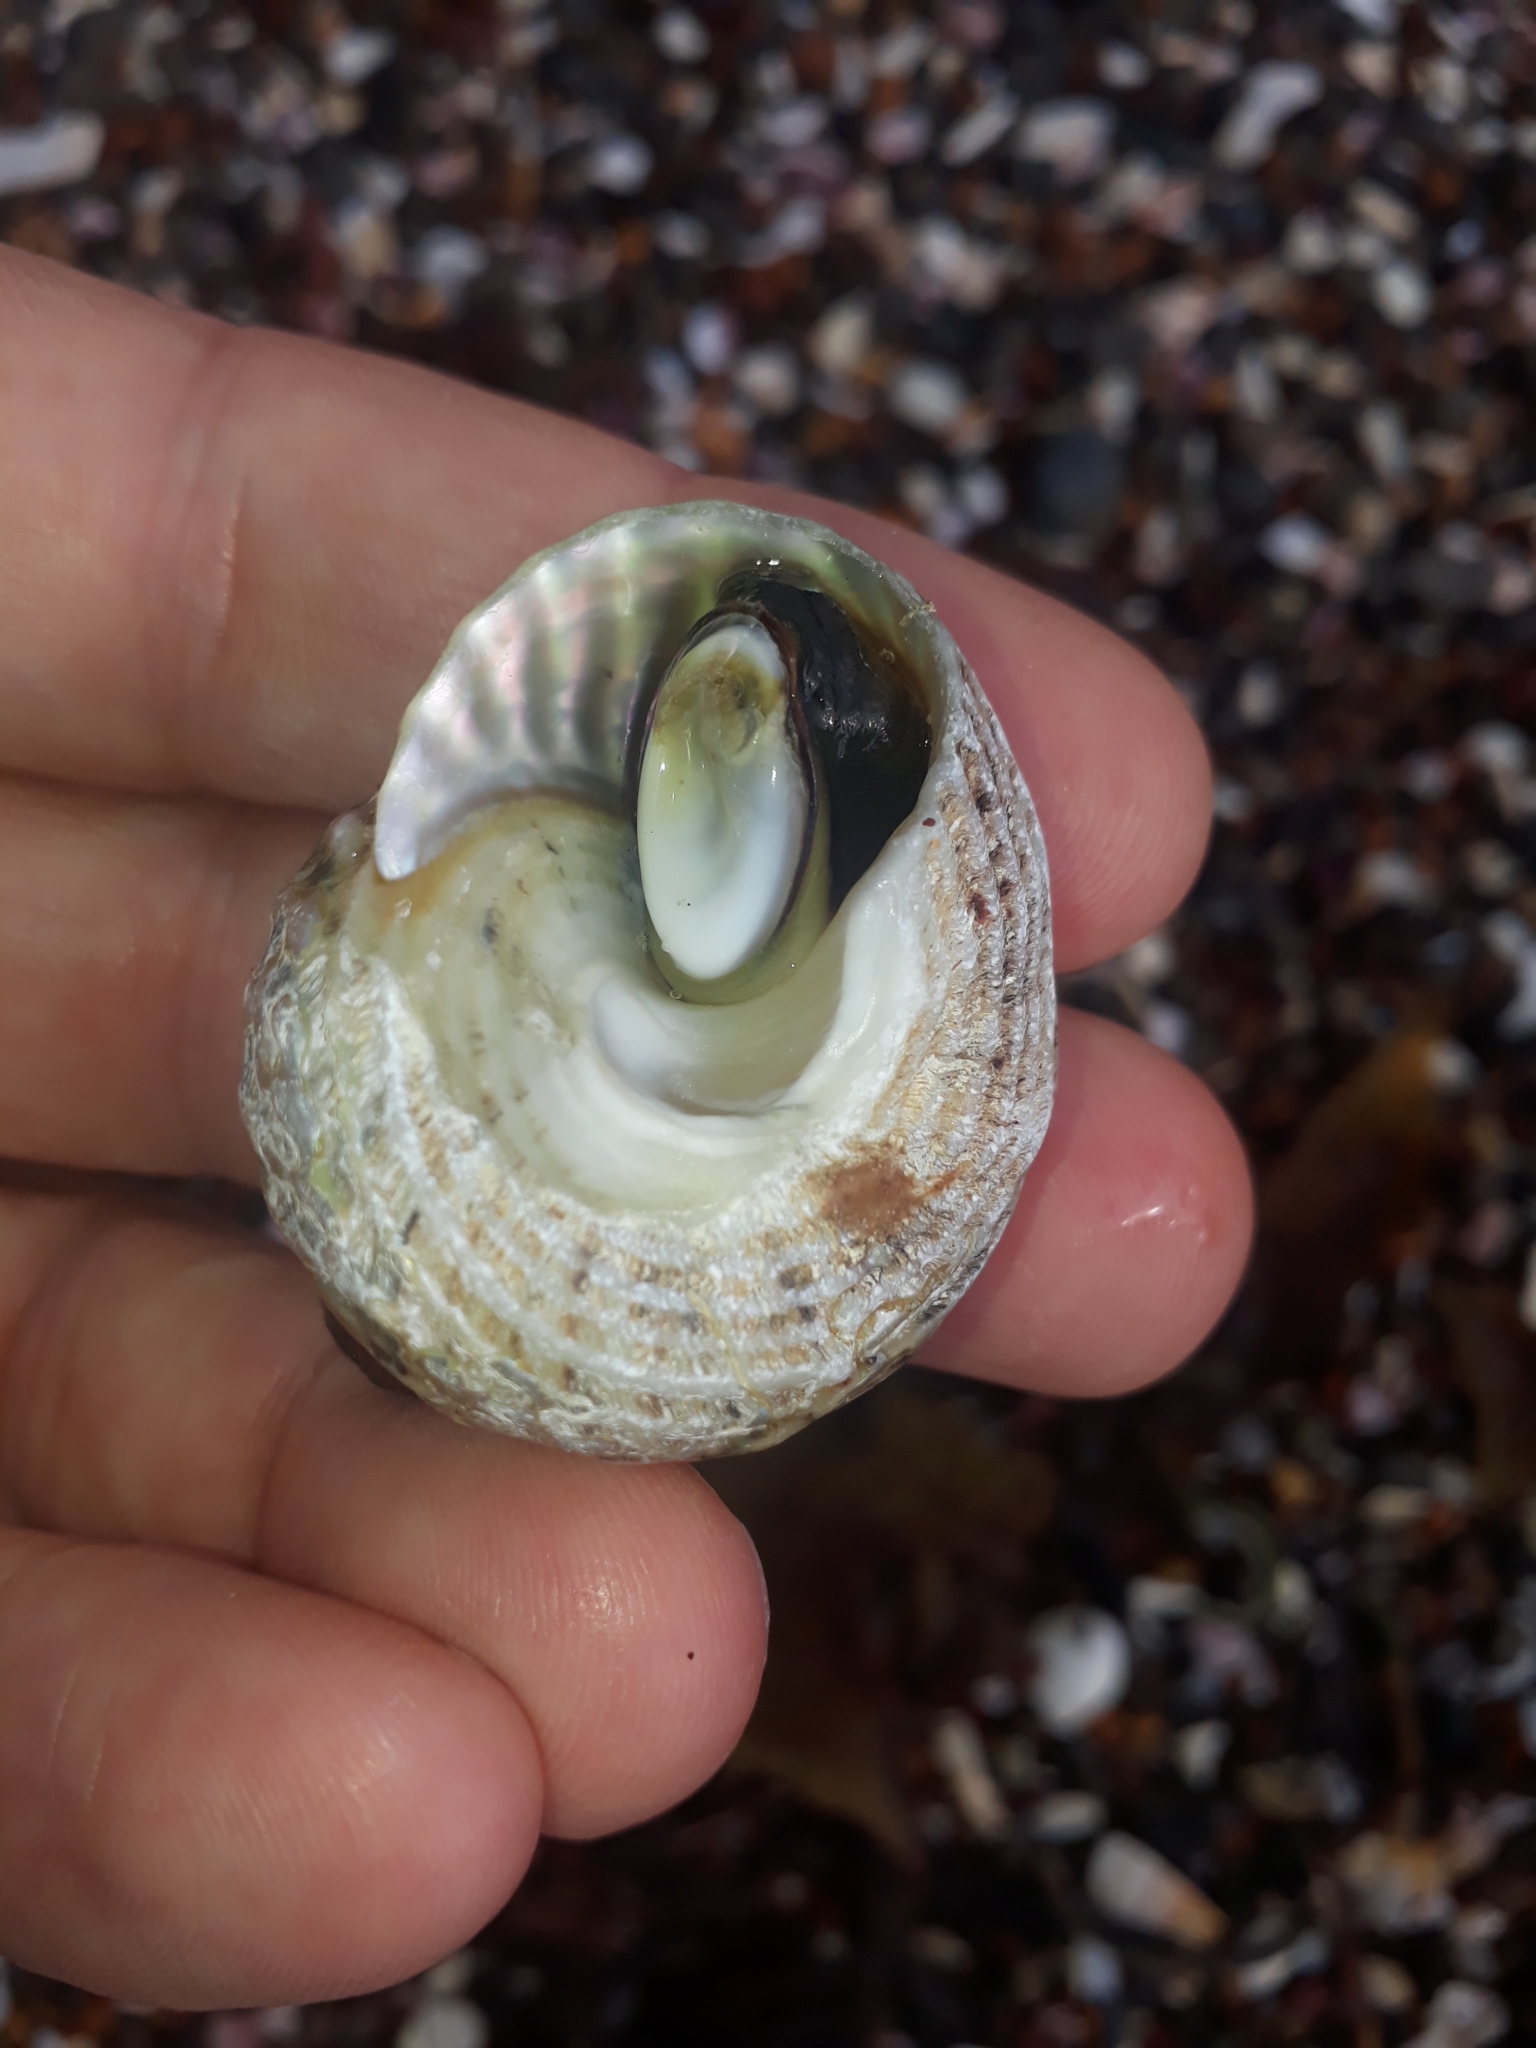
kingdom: Animalia
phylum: Mollusca
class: Gastropoda
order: Trochida
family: Turbinidae
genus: Cookia
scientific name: Cookia sulcata
